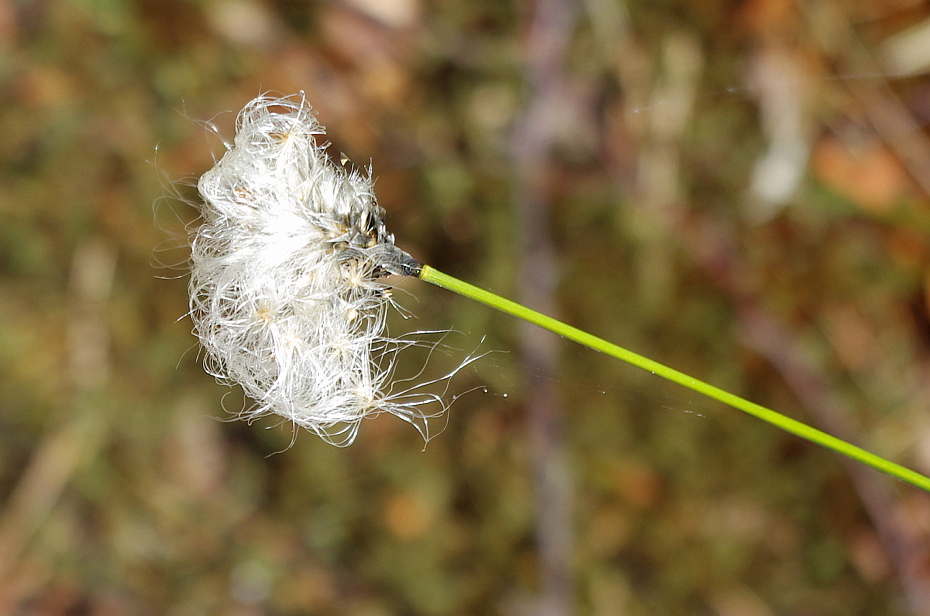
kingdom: Plantae
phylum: Tracheophyta
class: Liliopsida
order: Poales
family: Cyperaceae
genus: Eriophorum
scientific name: Eriophorum vaginatum
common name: Hare's-tail cottongrass
